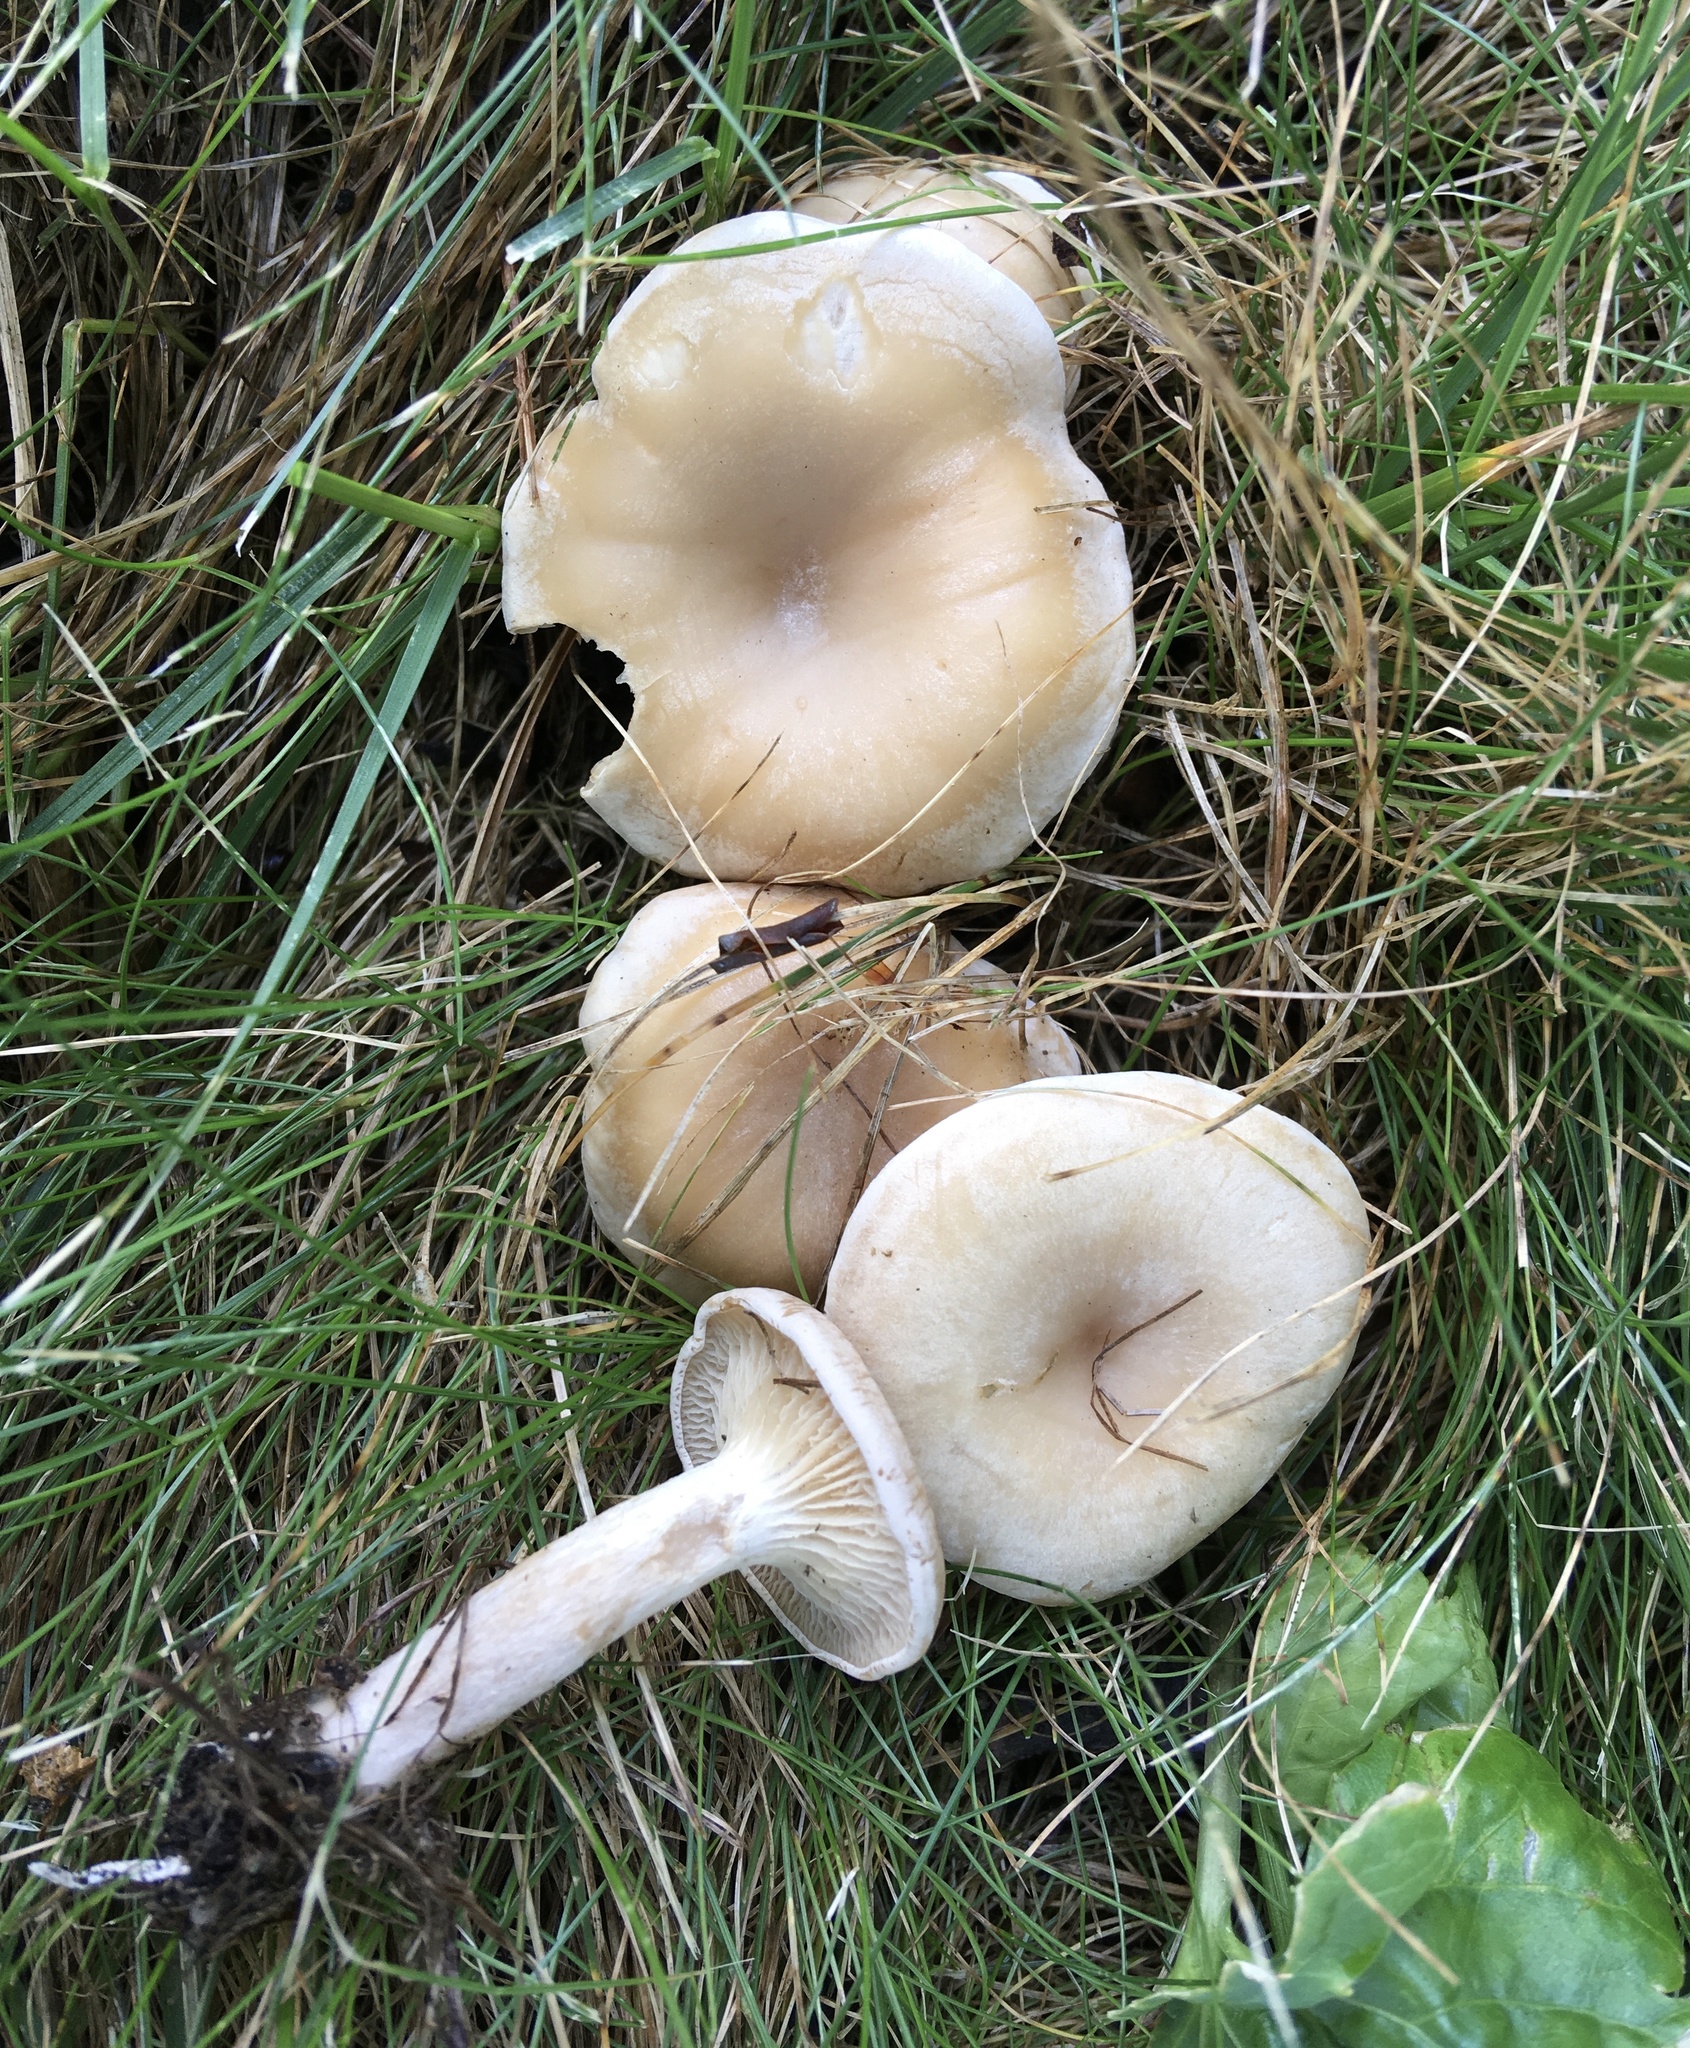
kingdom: Fungi
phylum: Basidiomycota
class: Agaricomycetes
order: Agaricales
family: Tricholomataceae
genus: Collybia
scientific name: Collybia
